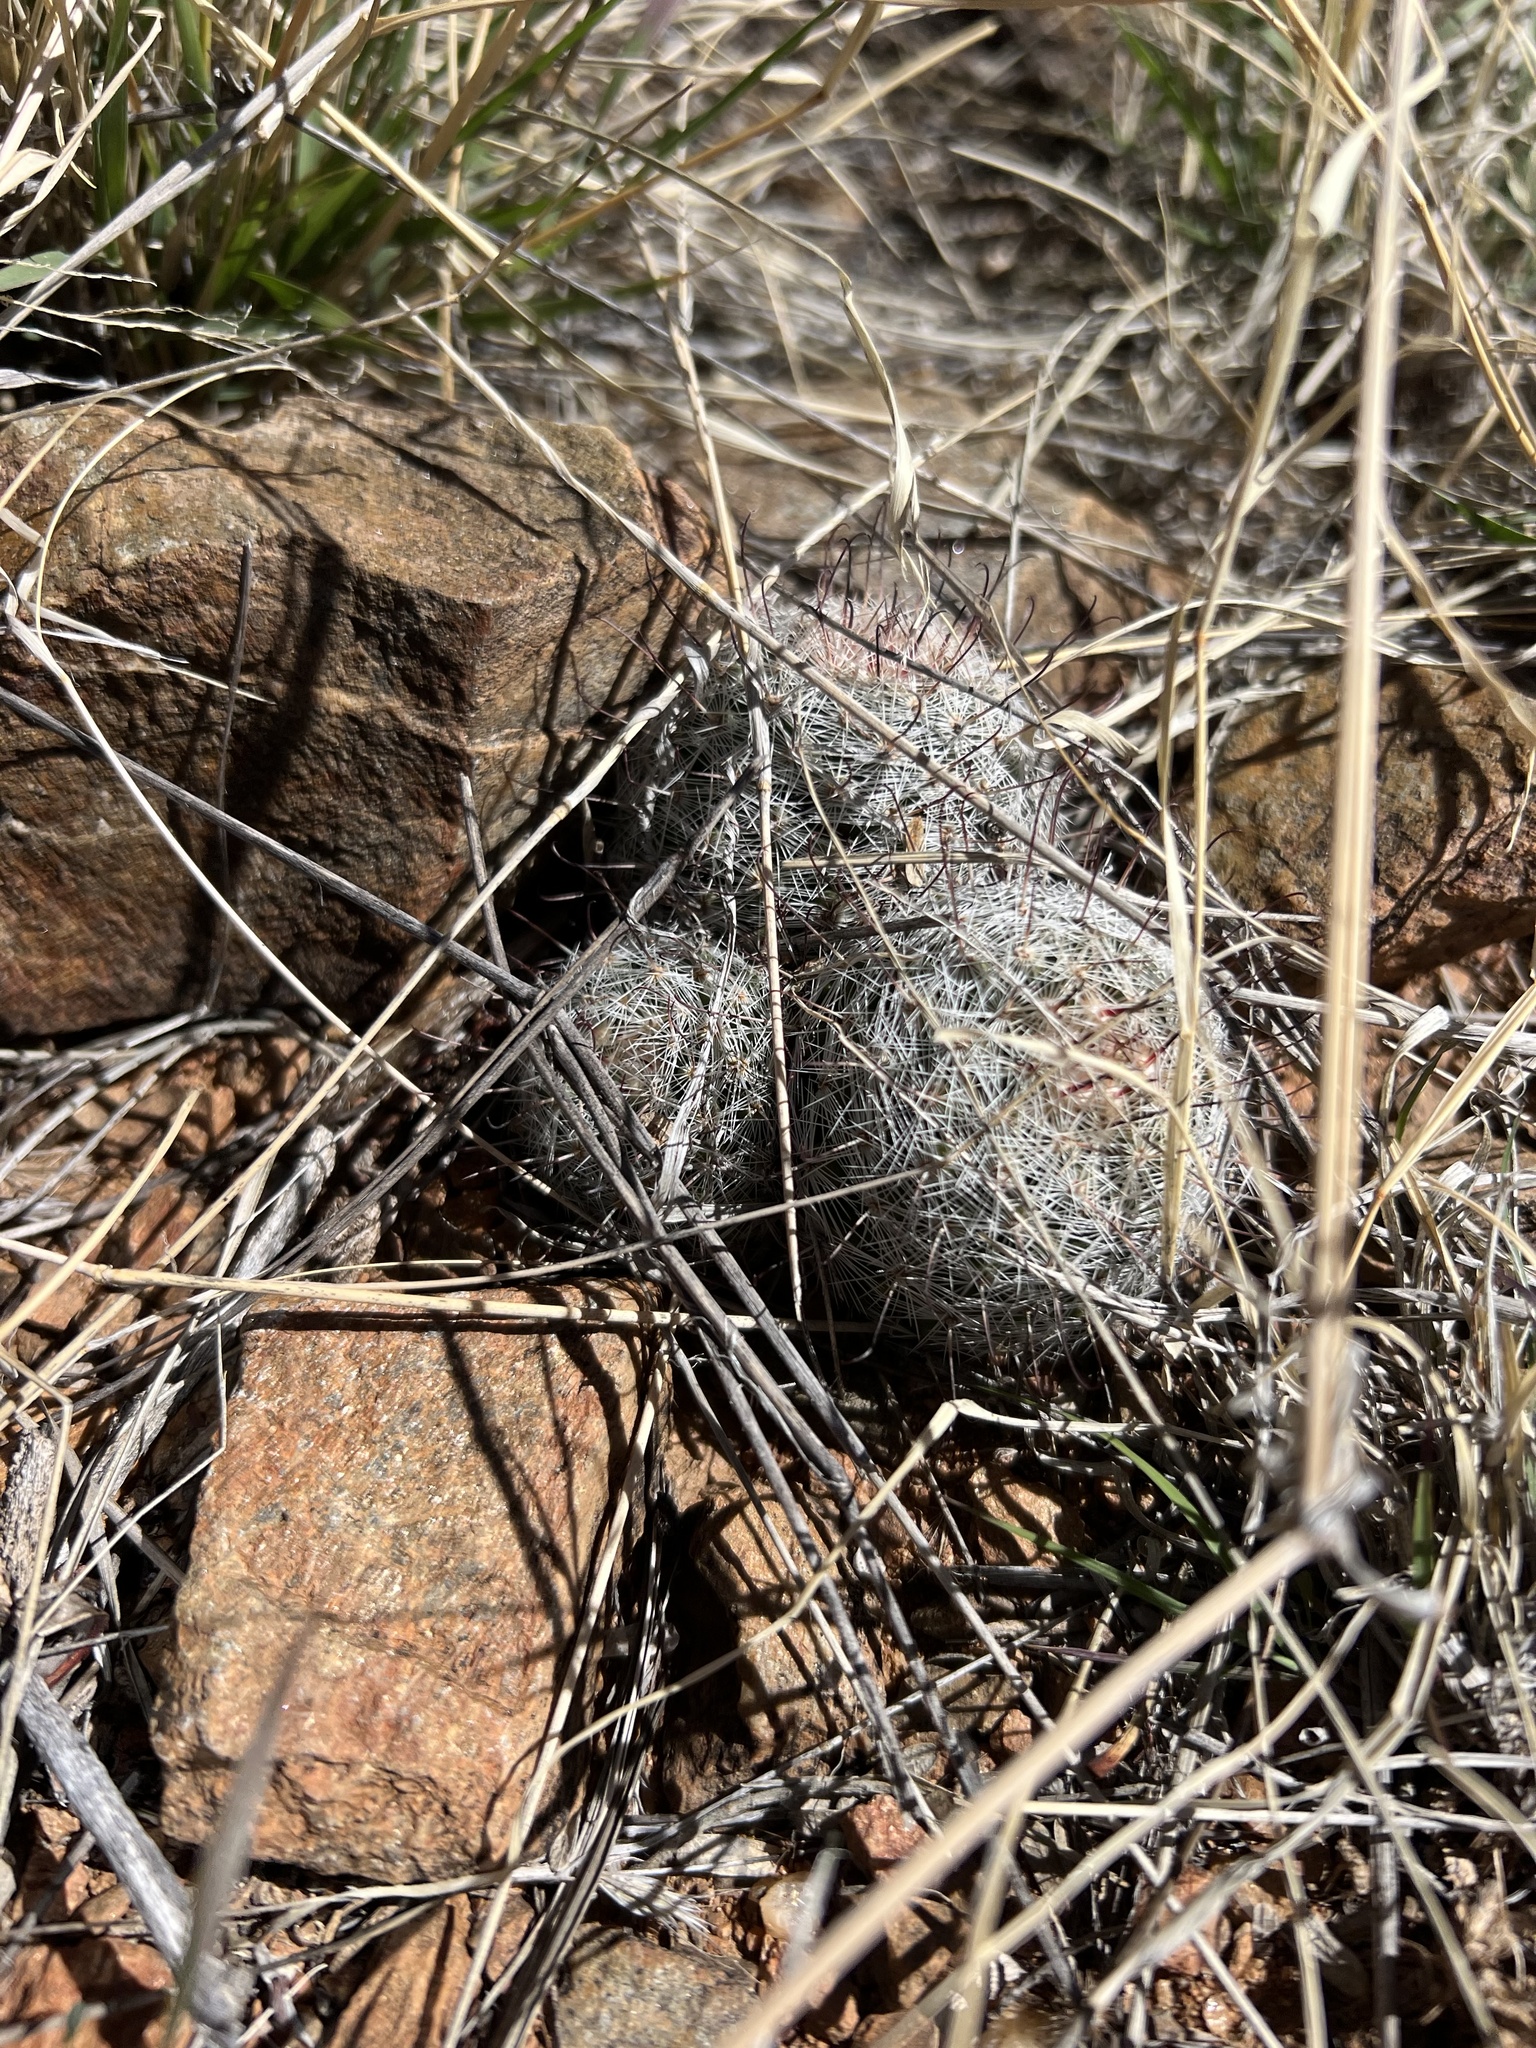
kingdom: Plantae
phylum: Tracheophyta
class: Magnoliopsida
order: Caryophyllales
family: Cactaceae
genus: Cochemiea
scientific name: Cochemiea grahamii
